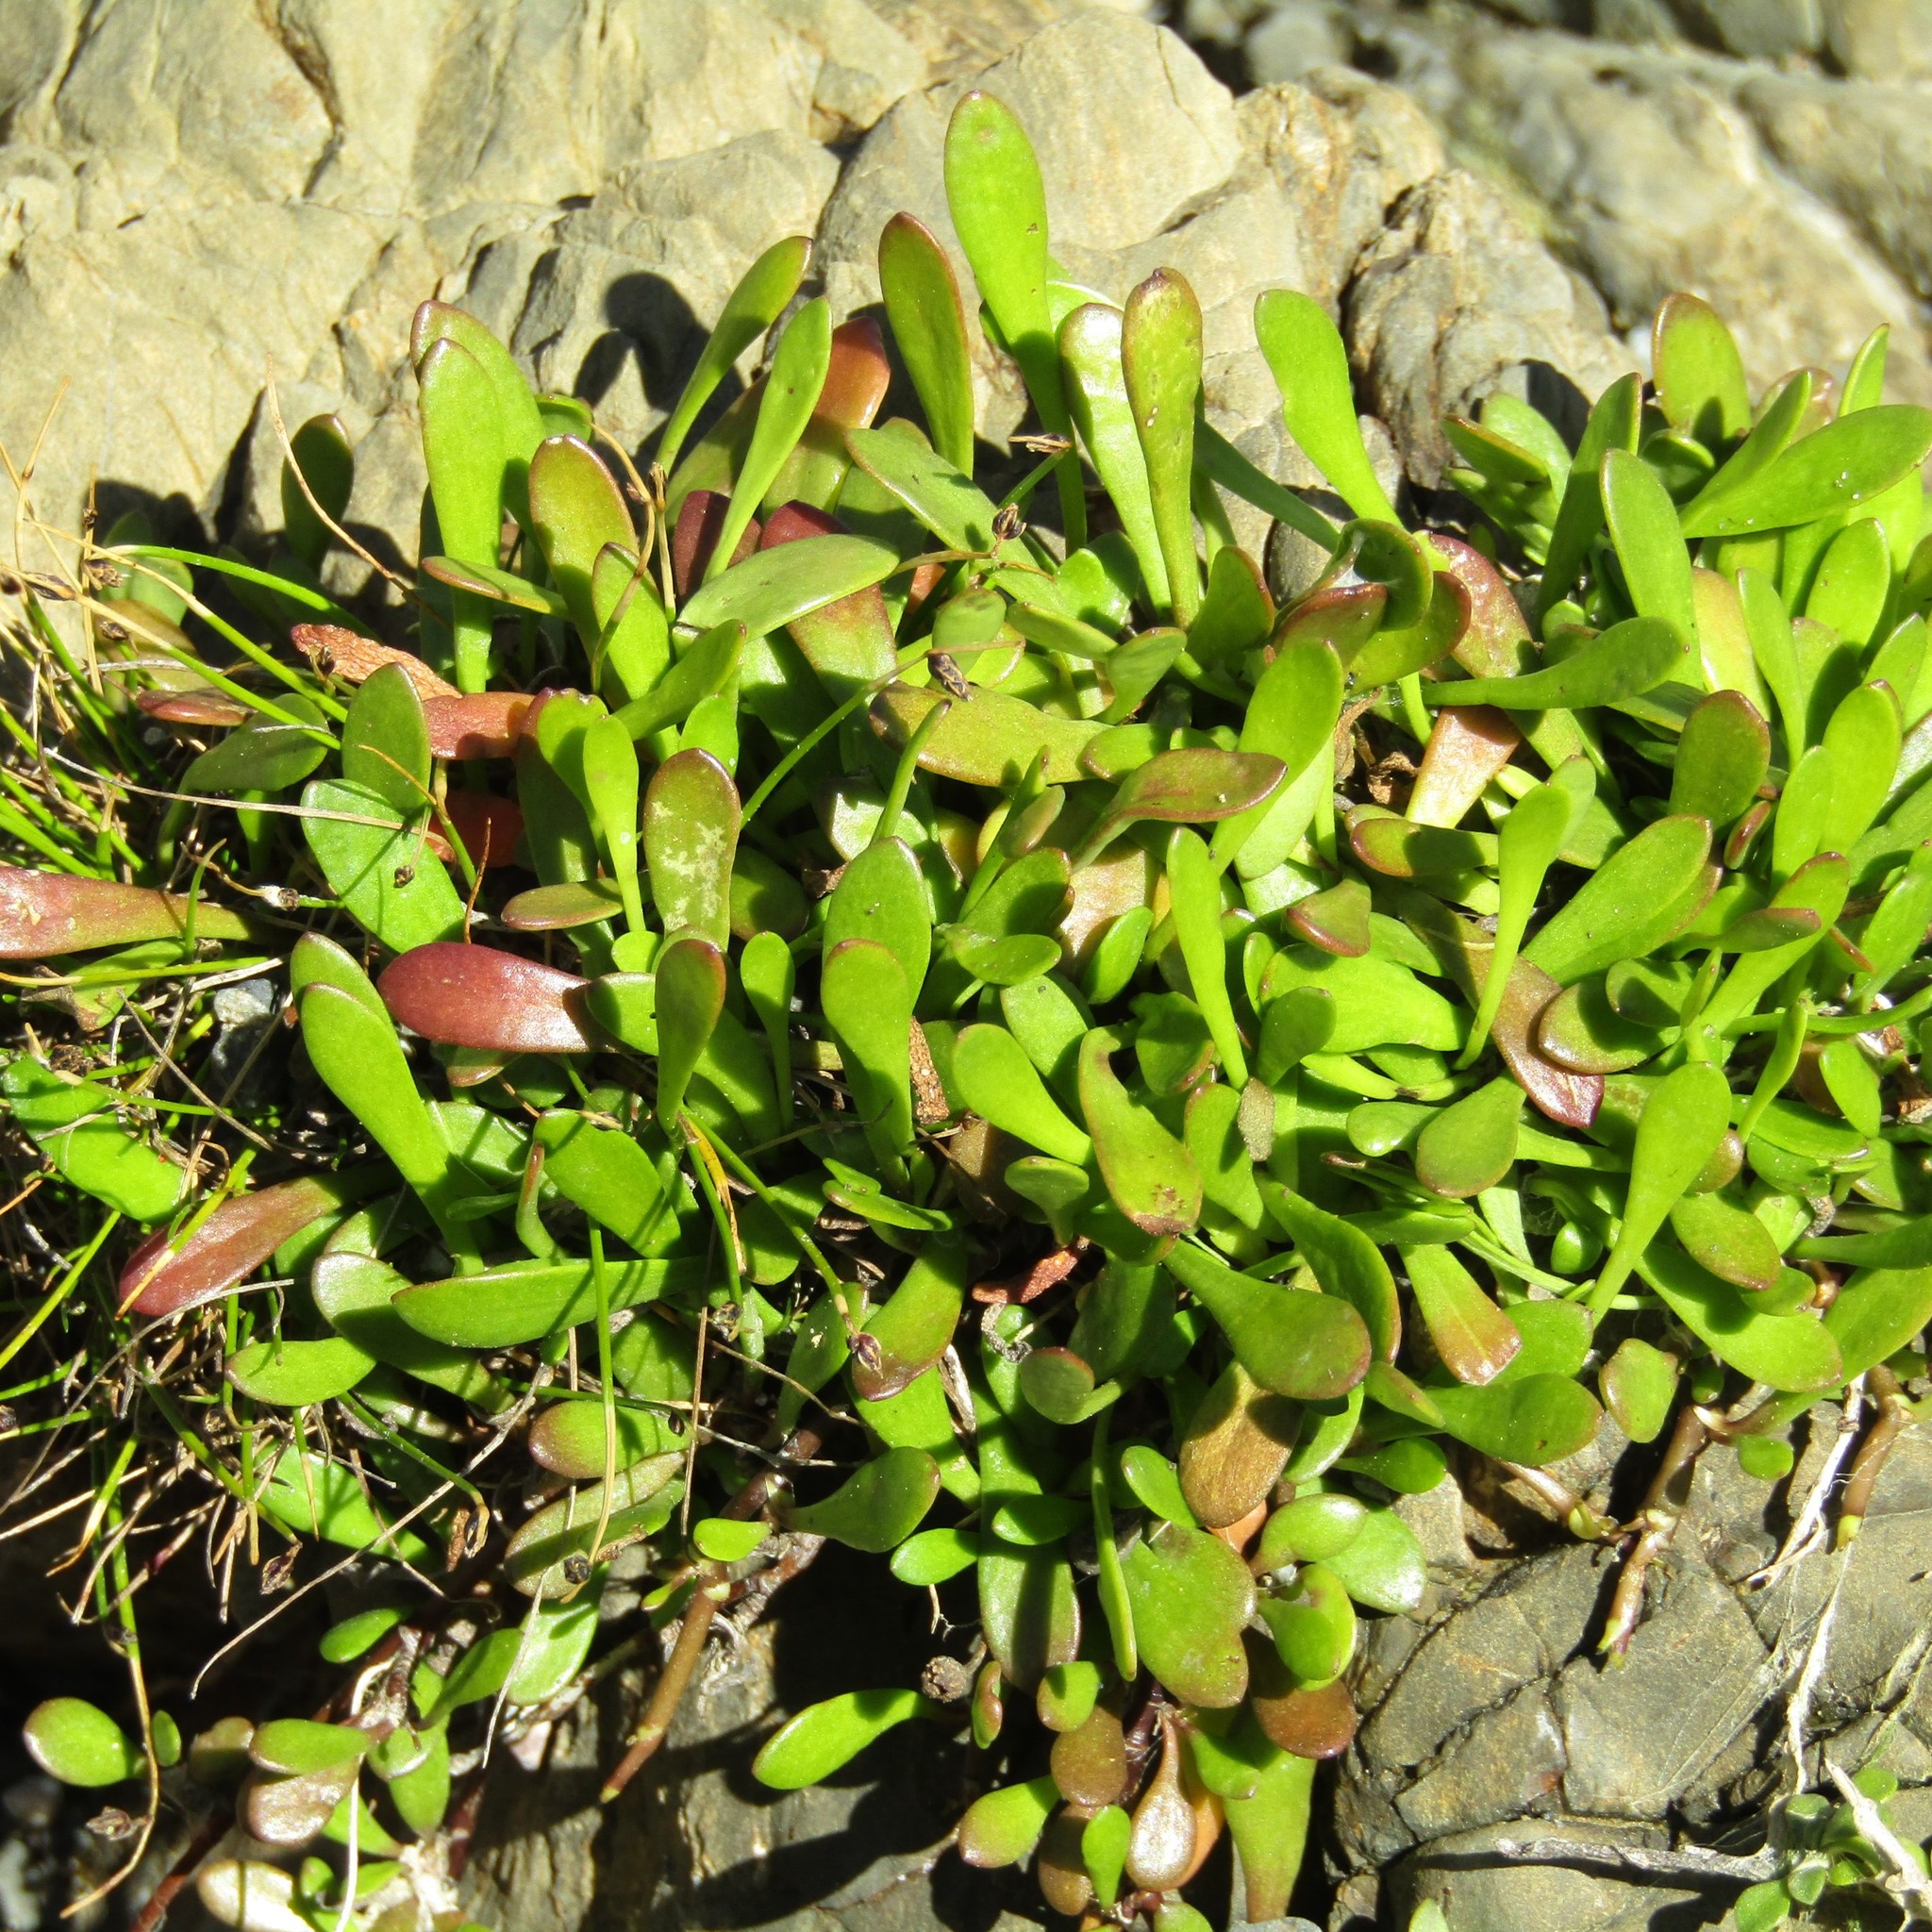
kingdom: Plantae
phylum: Tracheophyta
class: Magnoliopsida
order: Asterales
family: Goodeniaceae
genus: Goodenia
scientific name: Goodenia radicans
